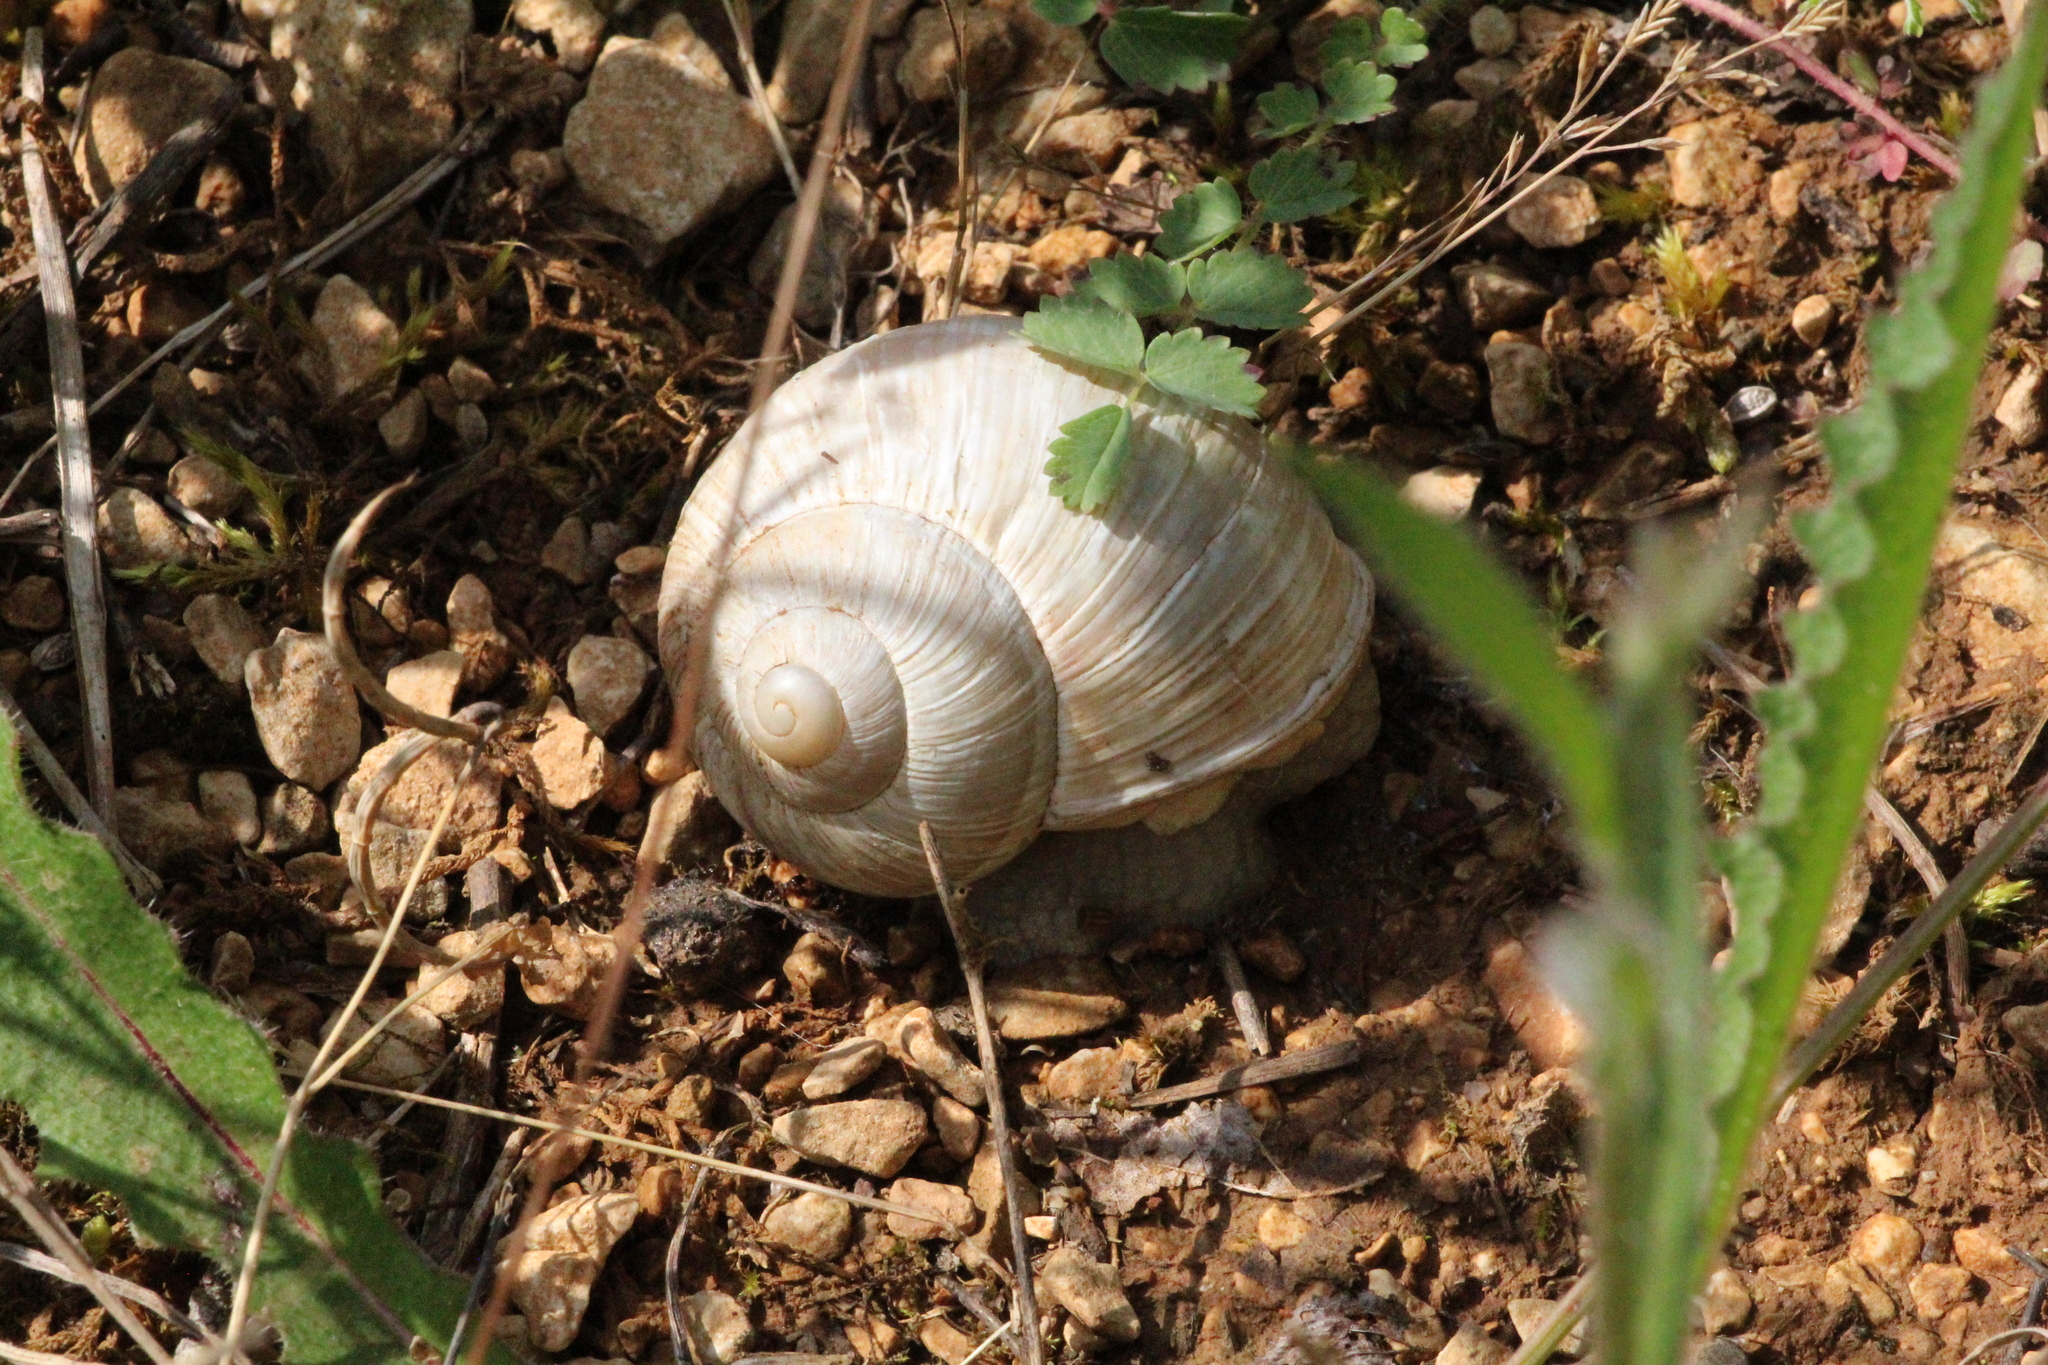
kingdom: Animalia
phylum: Mollusca
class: Gastropoda
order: Stylommatophora
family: Helicidae
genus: Helix
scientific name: Helix pomatia
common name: Roman snail
